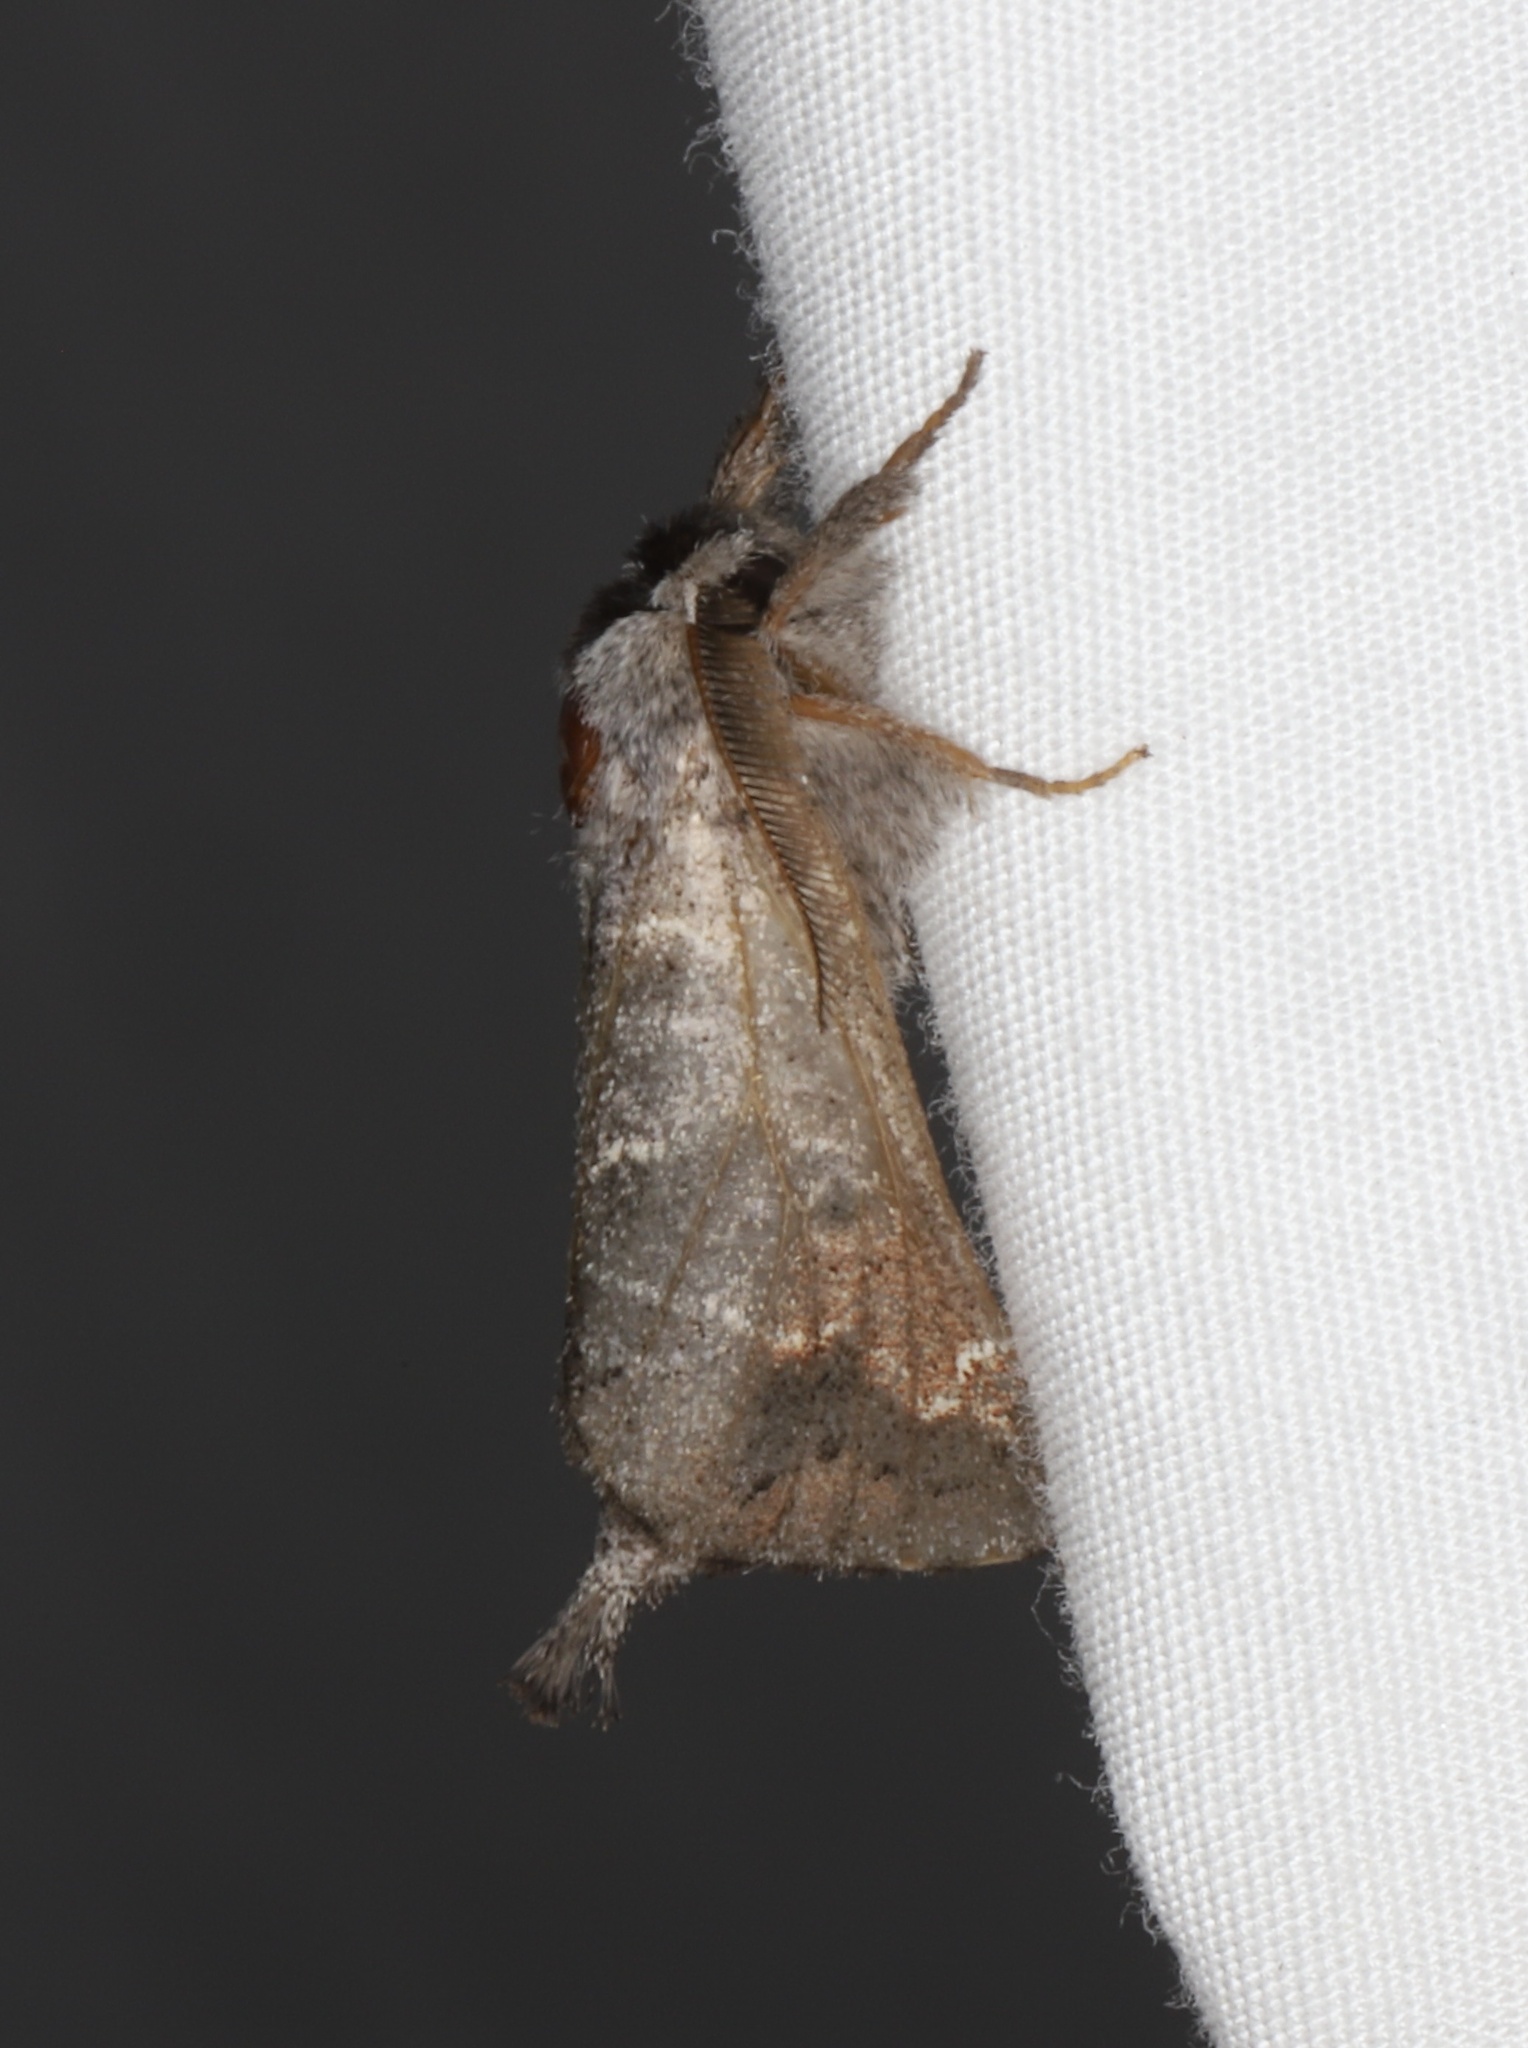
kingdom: Animalia
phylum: Arthropoda
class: Insecta
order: Lepidoptera
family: Notodontidae
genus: Clostera
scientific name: Clostera apicalis
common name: Apical prominent
